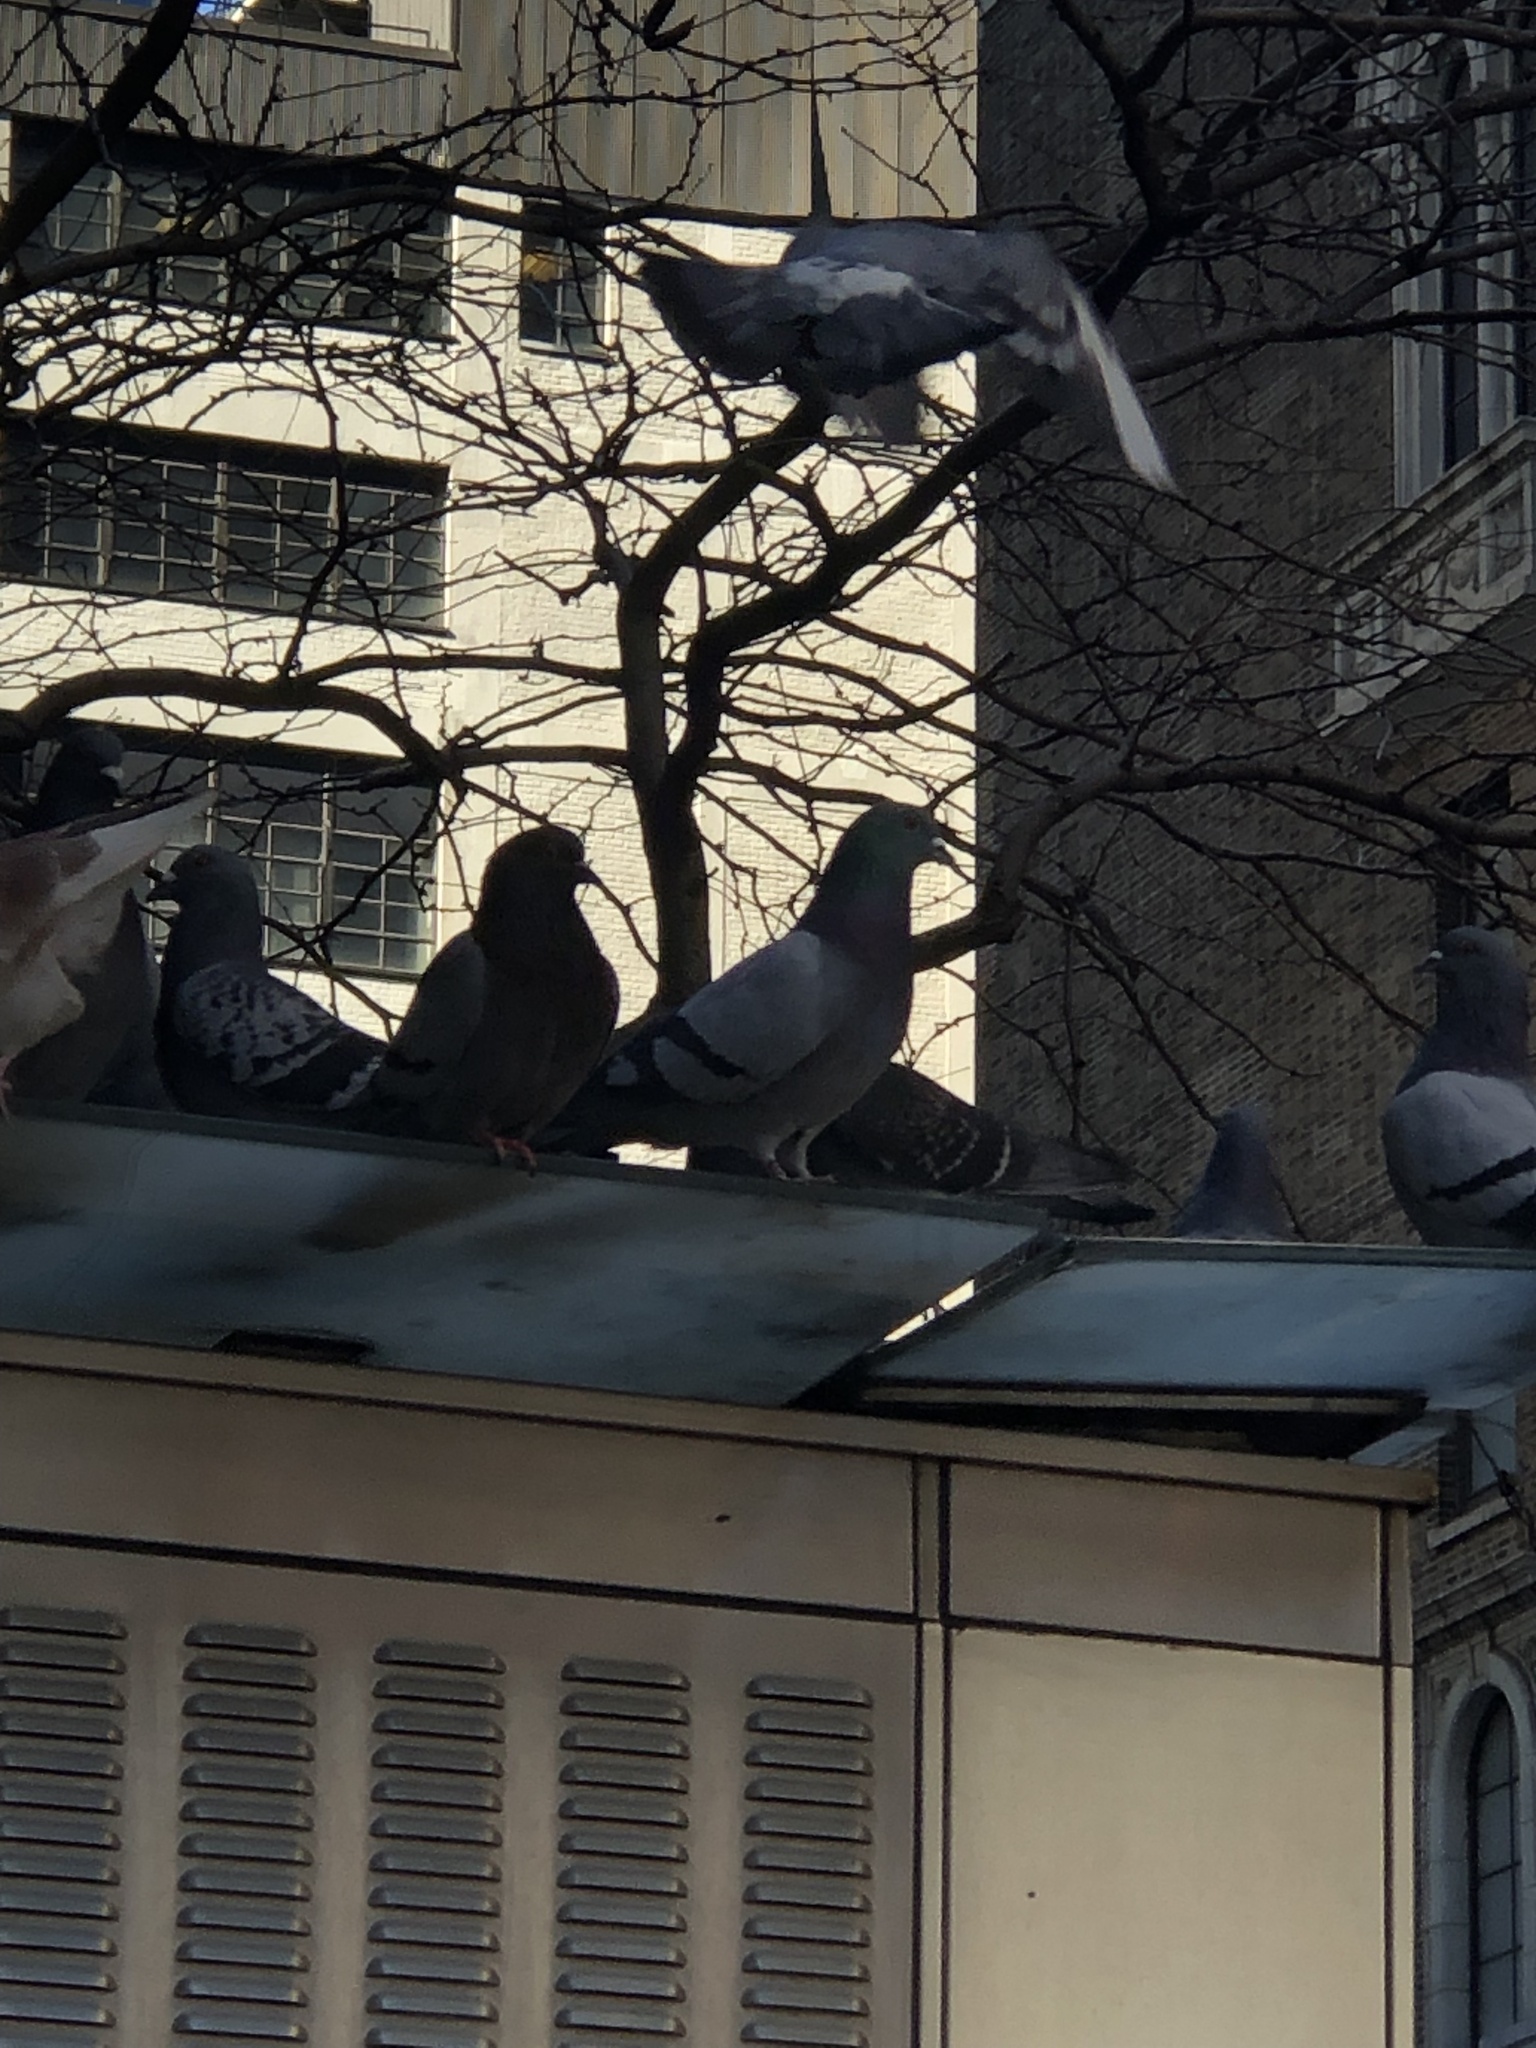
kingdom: Animalia
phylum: Chordata
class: Aves
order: Columbiformes
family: Columbidae
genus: Columba
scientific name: Columba livia
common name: Rock pigeon
